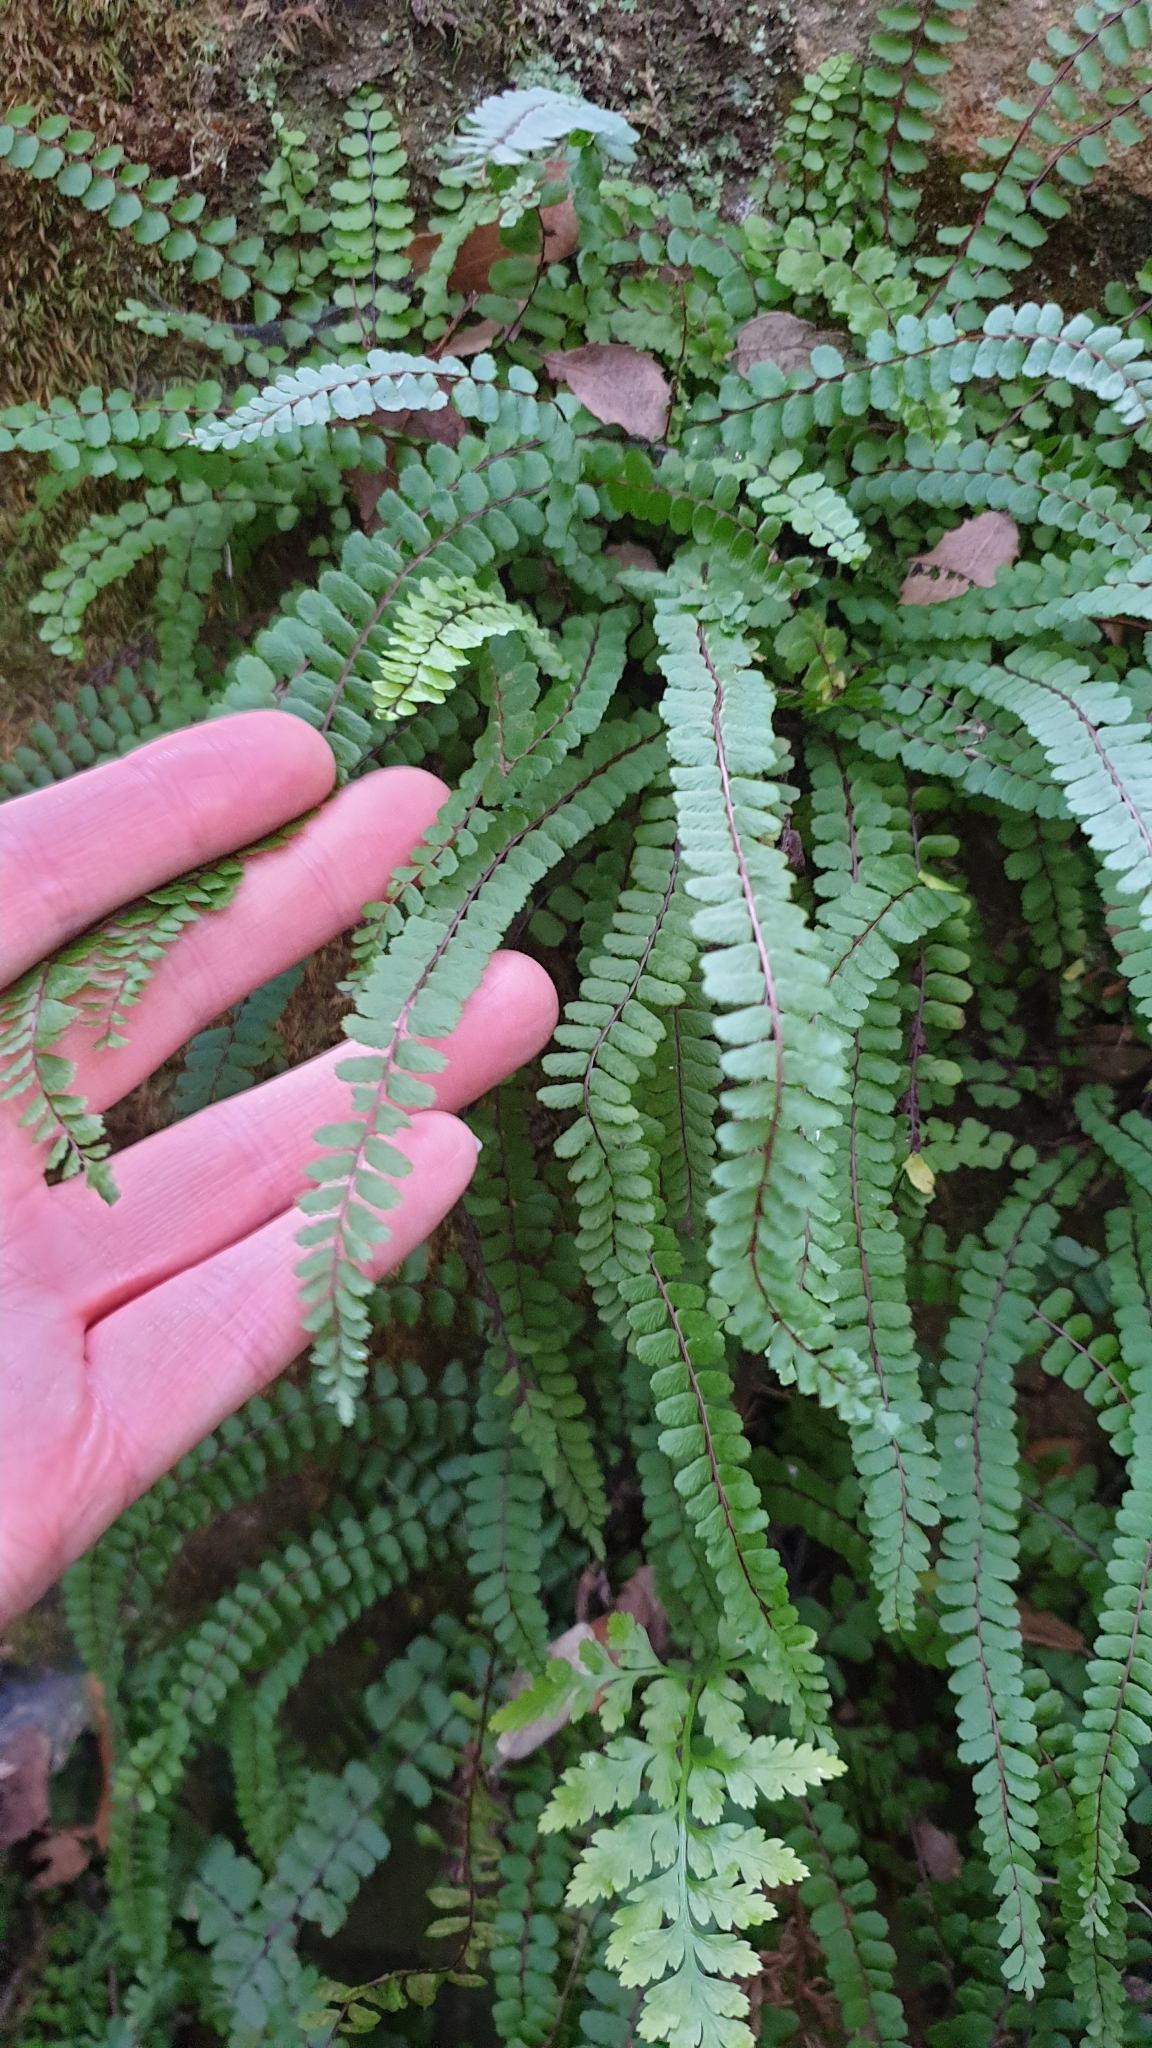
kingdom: Plantae
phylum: Tracheophyta
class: Polypodiopsida
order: Polypodiales
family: Aspleniaceae
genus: Asplenium
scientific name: Asplenium trichomanes
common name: Maidenhair spleenwort
